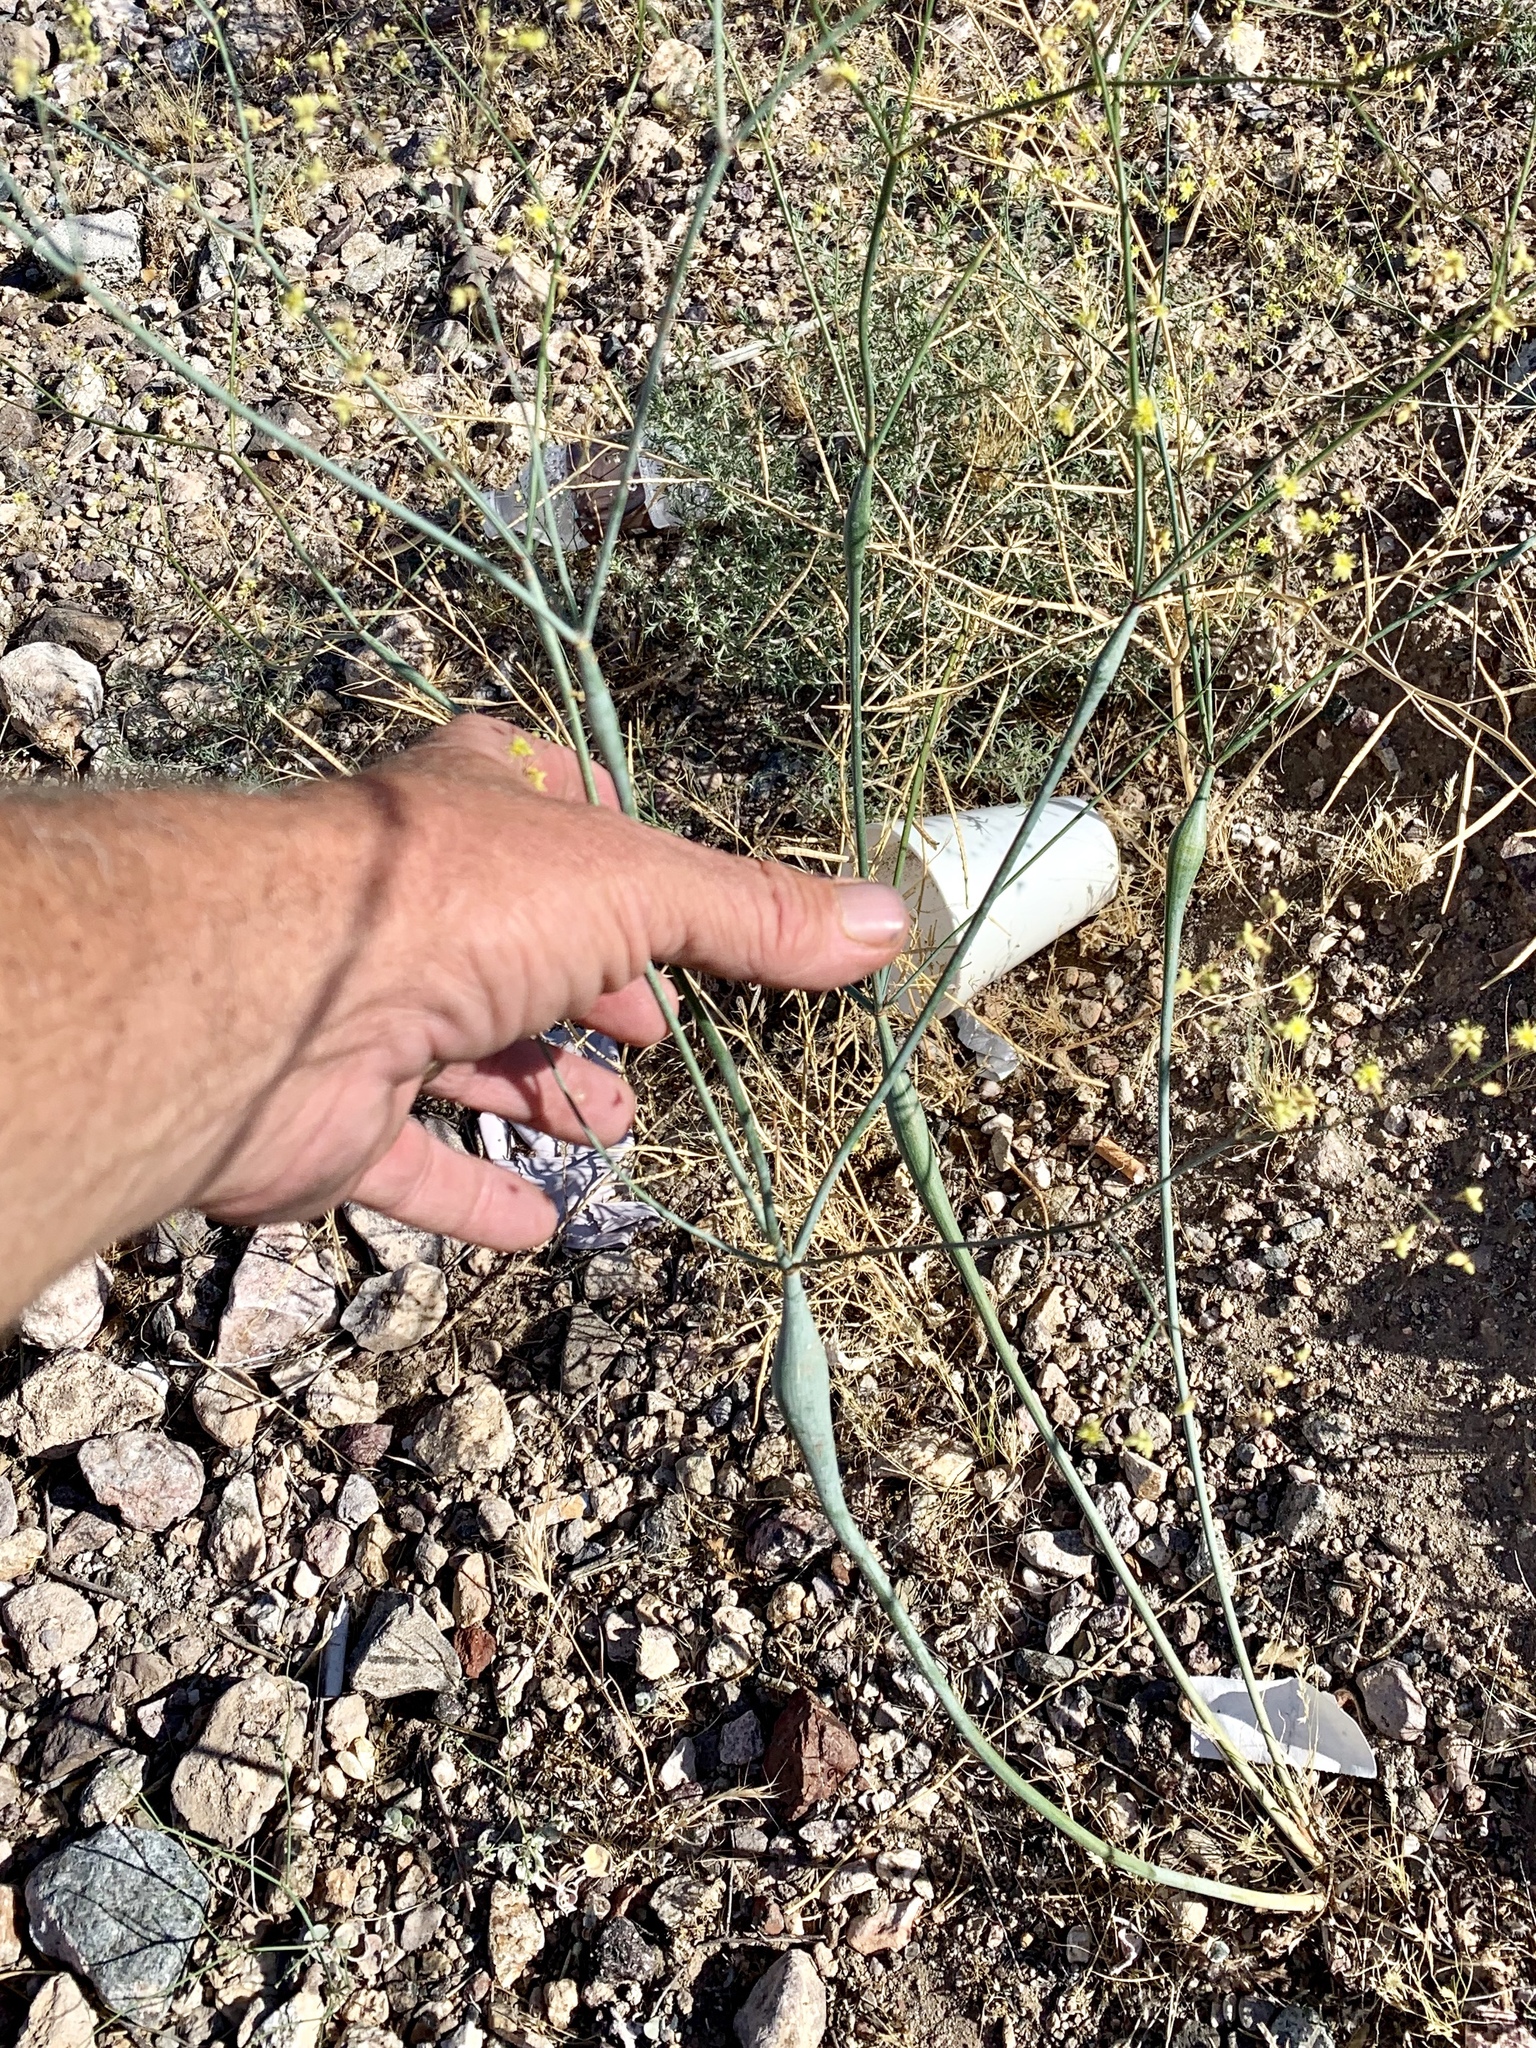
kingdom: Plantae
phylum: Tracheophyta
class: Magnoliopsida
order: Caryophyllales
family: Polygonaceae
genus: Eriogonum
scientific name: Eriogonum inflatum
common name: Desert trumpet
